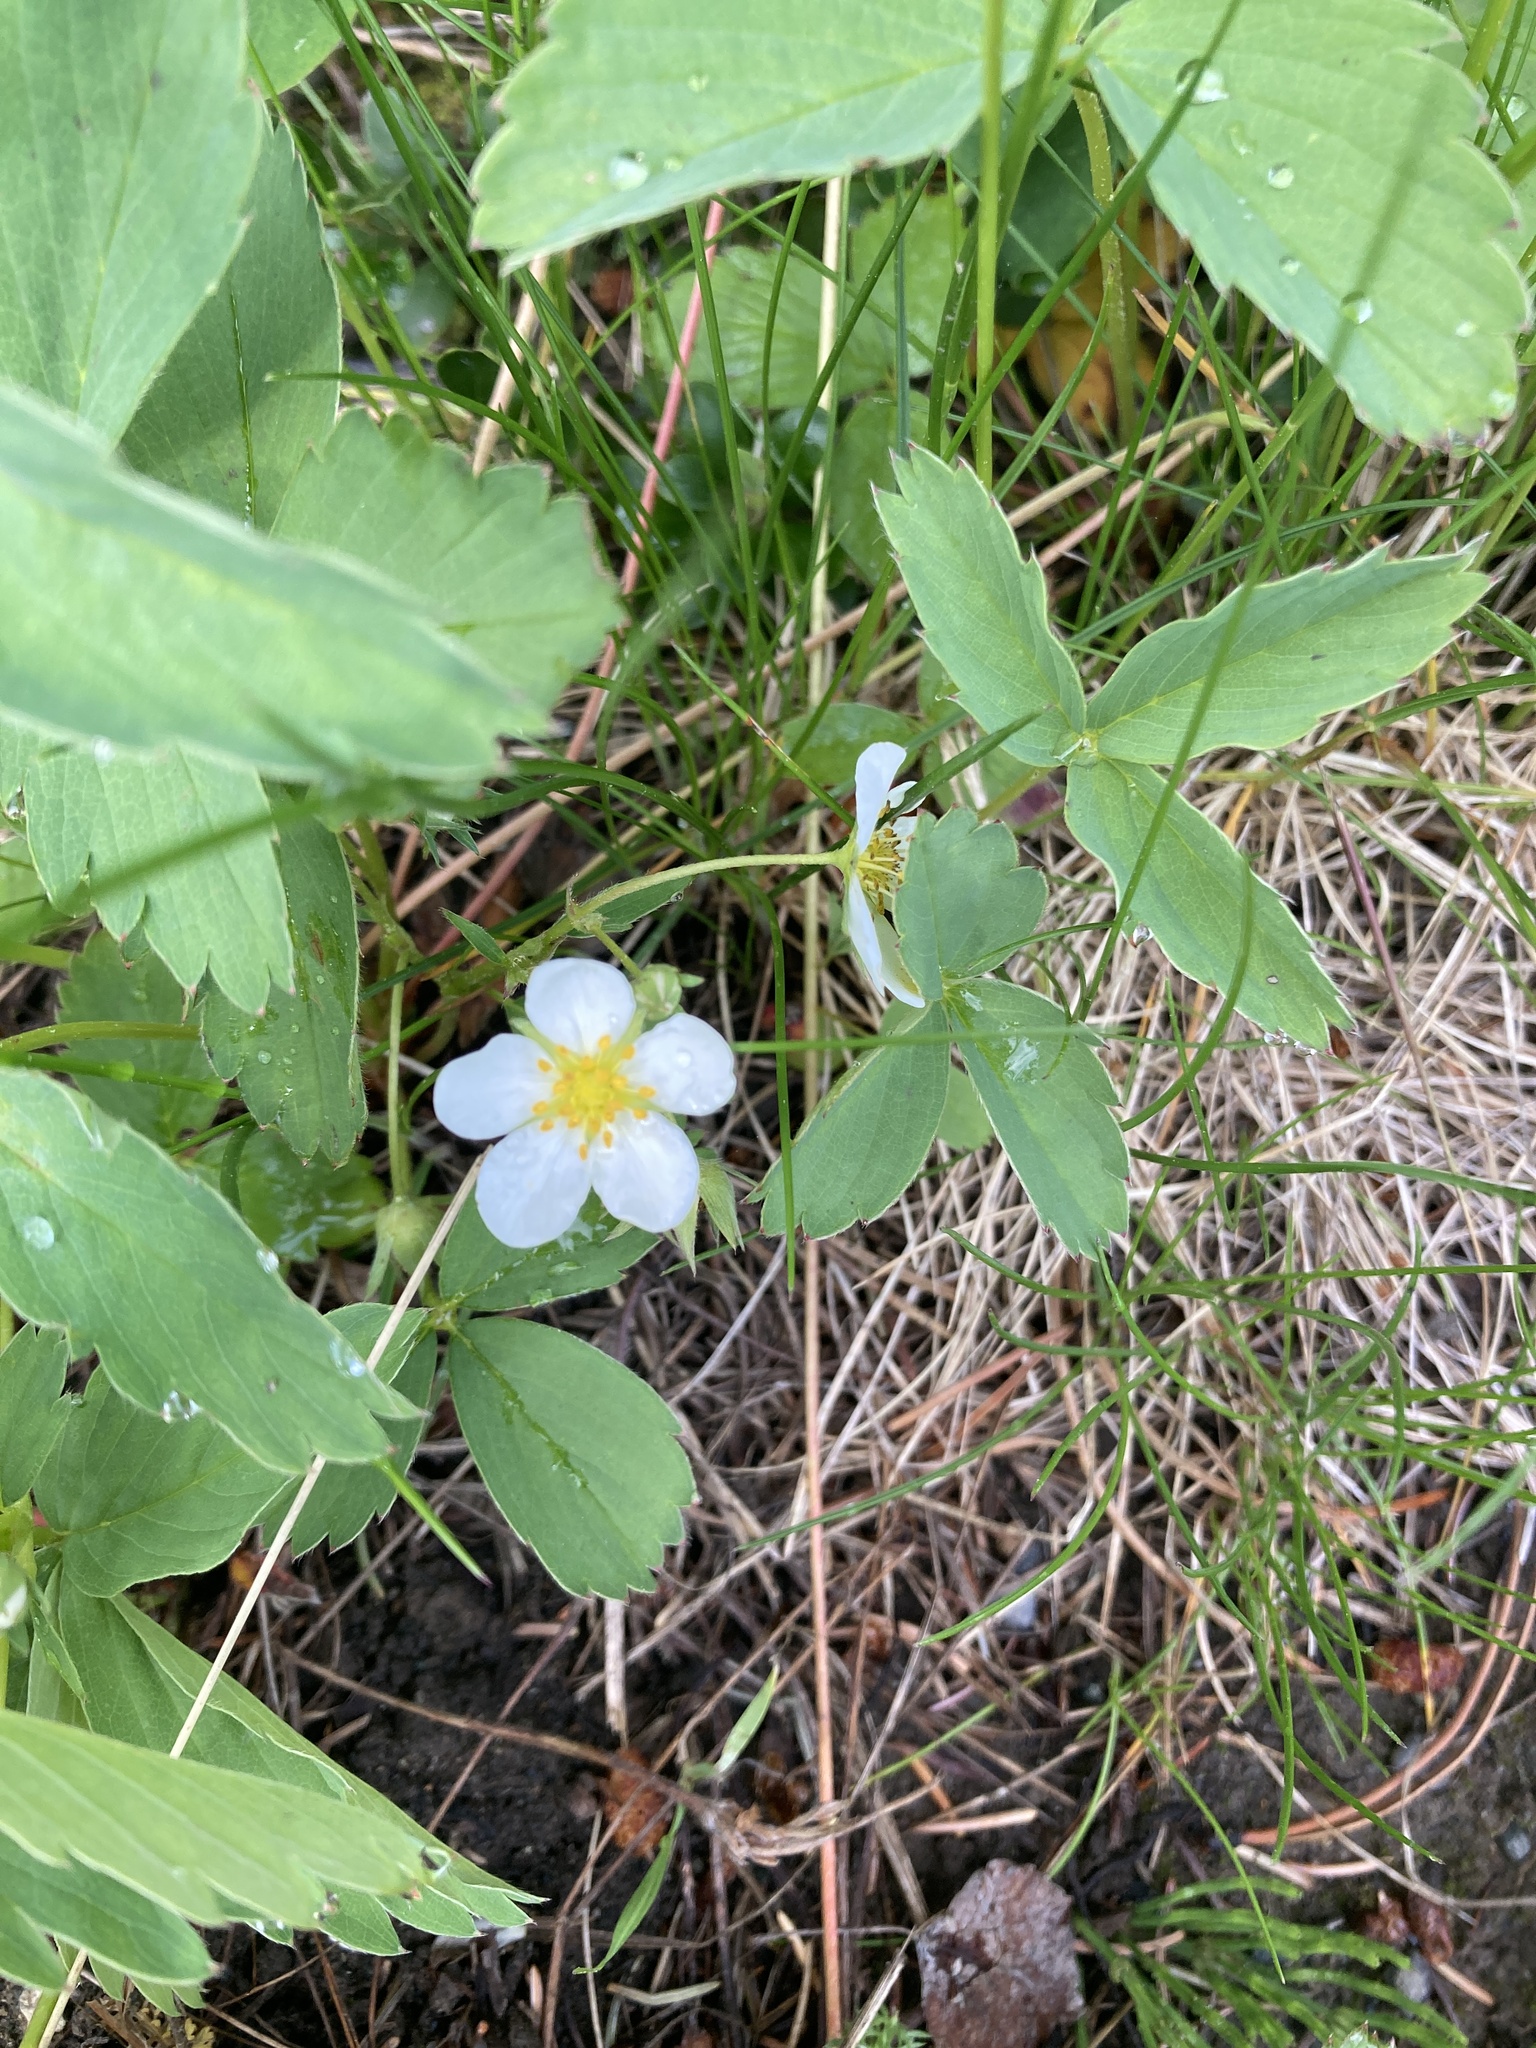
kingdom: Plantae
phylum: Tracheophyta
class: Magnoliopsida
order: Rosales
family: Rosaceae
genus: Fragaria
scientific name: Fragaria virginiana
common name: Thickleaved wild strawberry
